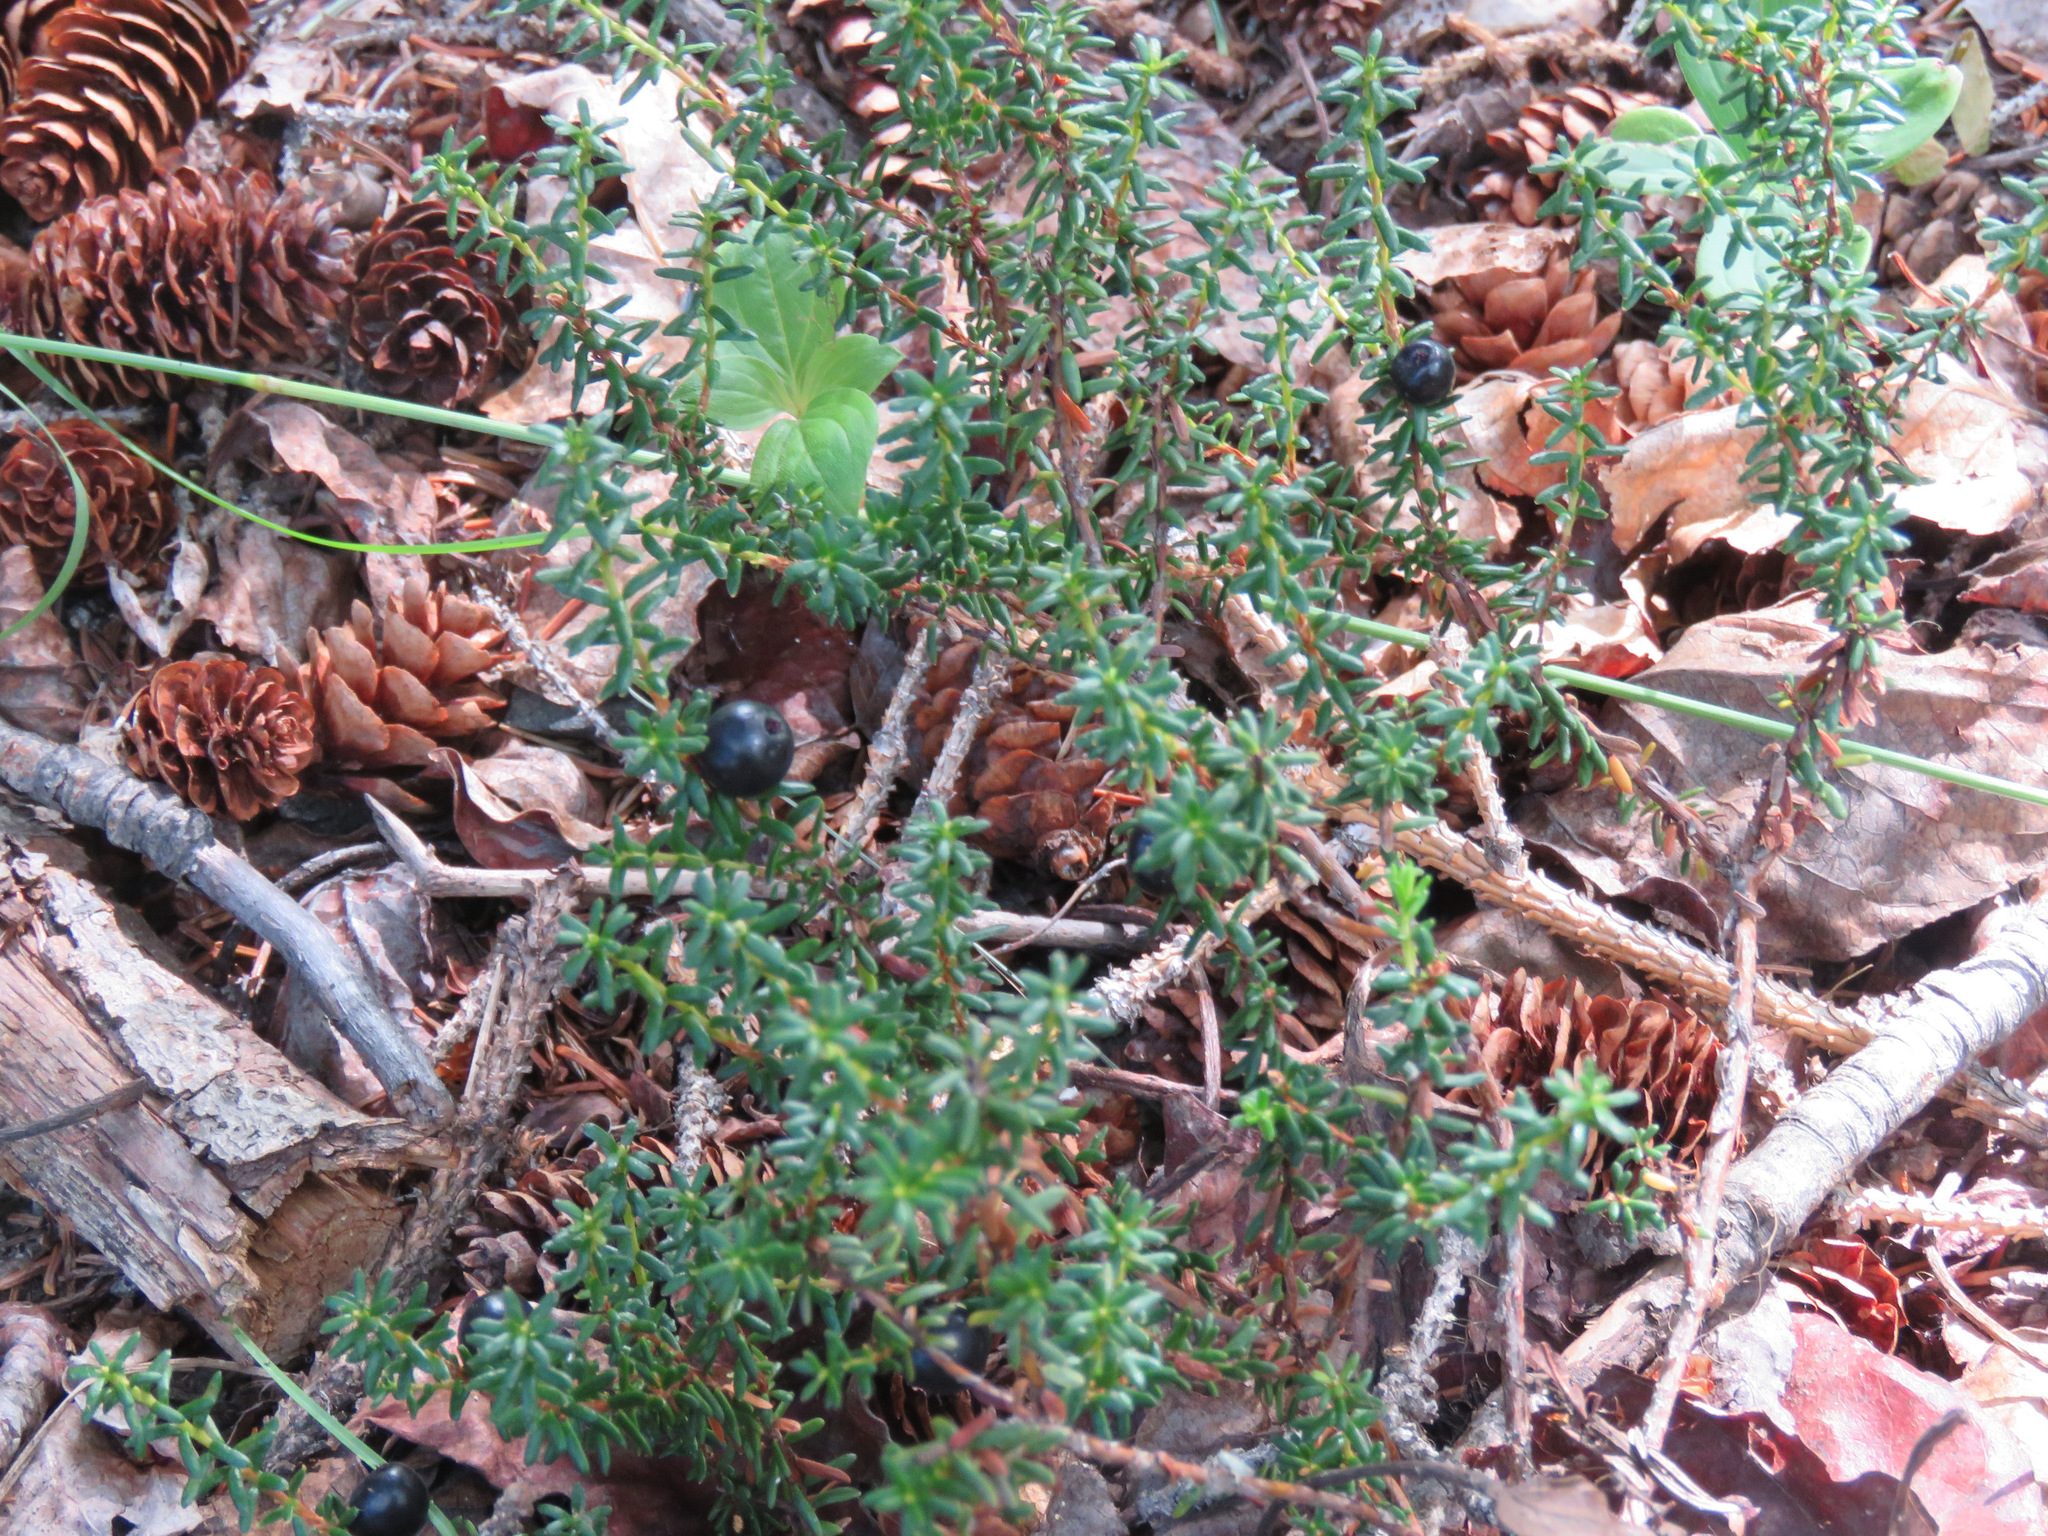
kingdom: Plantae
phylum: Tracheophyta
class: Magnoliopsida
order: Ericales
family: Ericaceae
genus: Empetrum
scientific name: Empetrum nigrum
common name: Black crowberry
